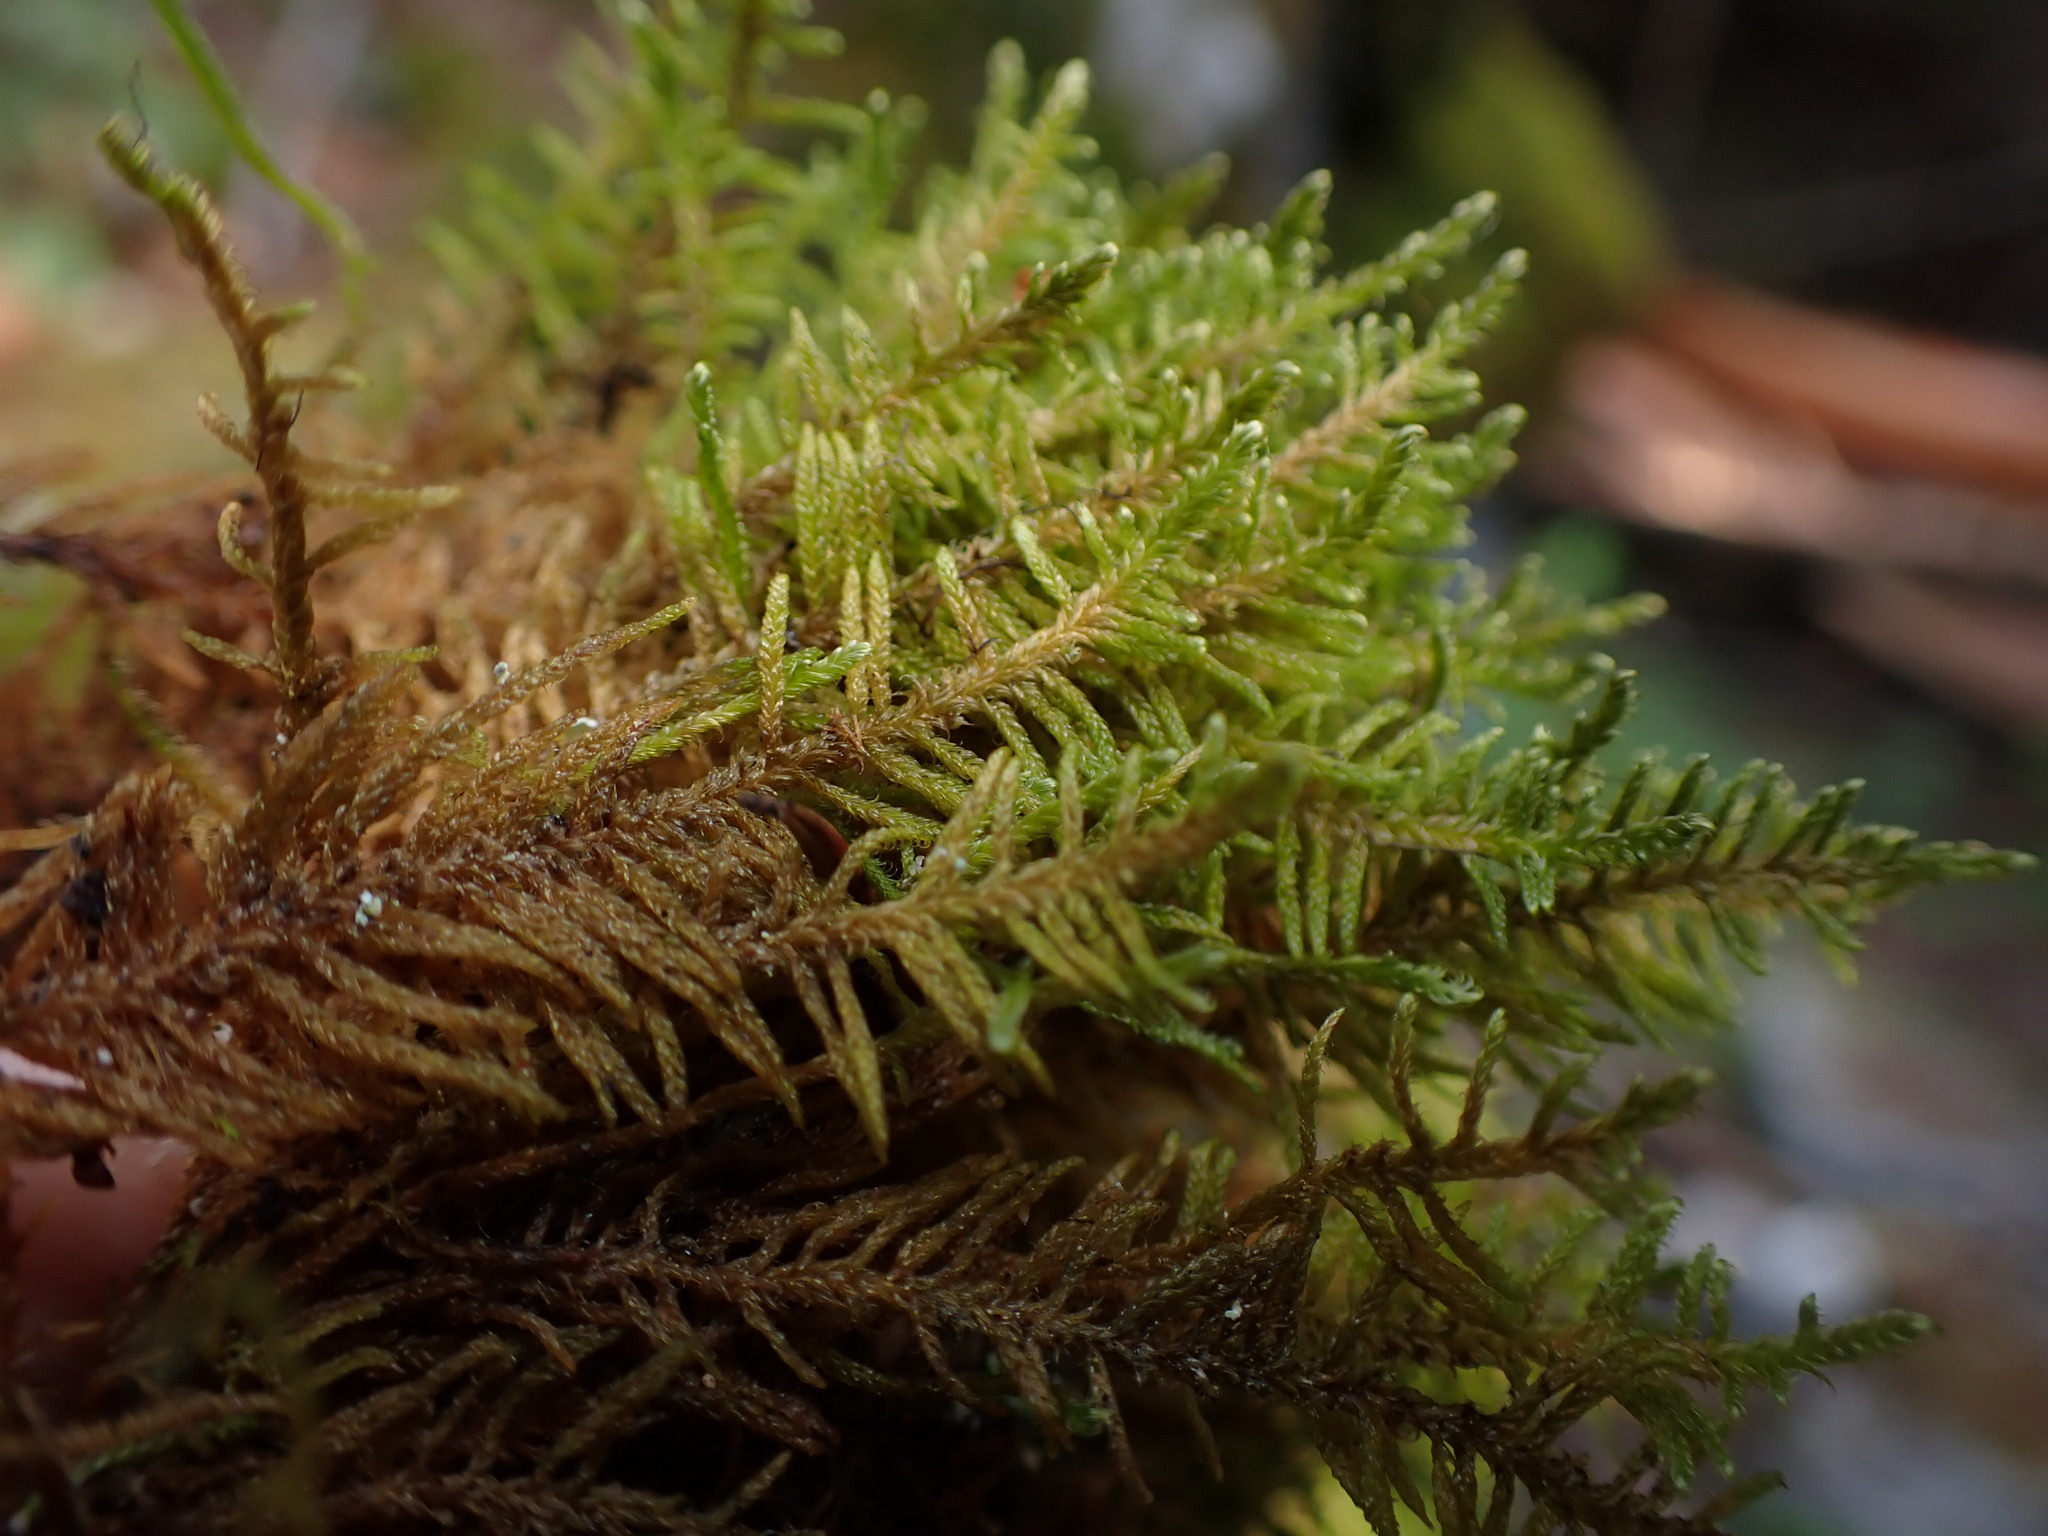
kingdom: Plantae
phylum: Bryophyta
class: Bryopsida
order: Hypnales
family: Pylaisiaceae
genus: Ptilium
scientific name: Ptilium crista-castrensis
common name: Knight's plume moss
